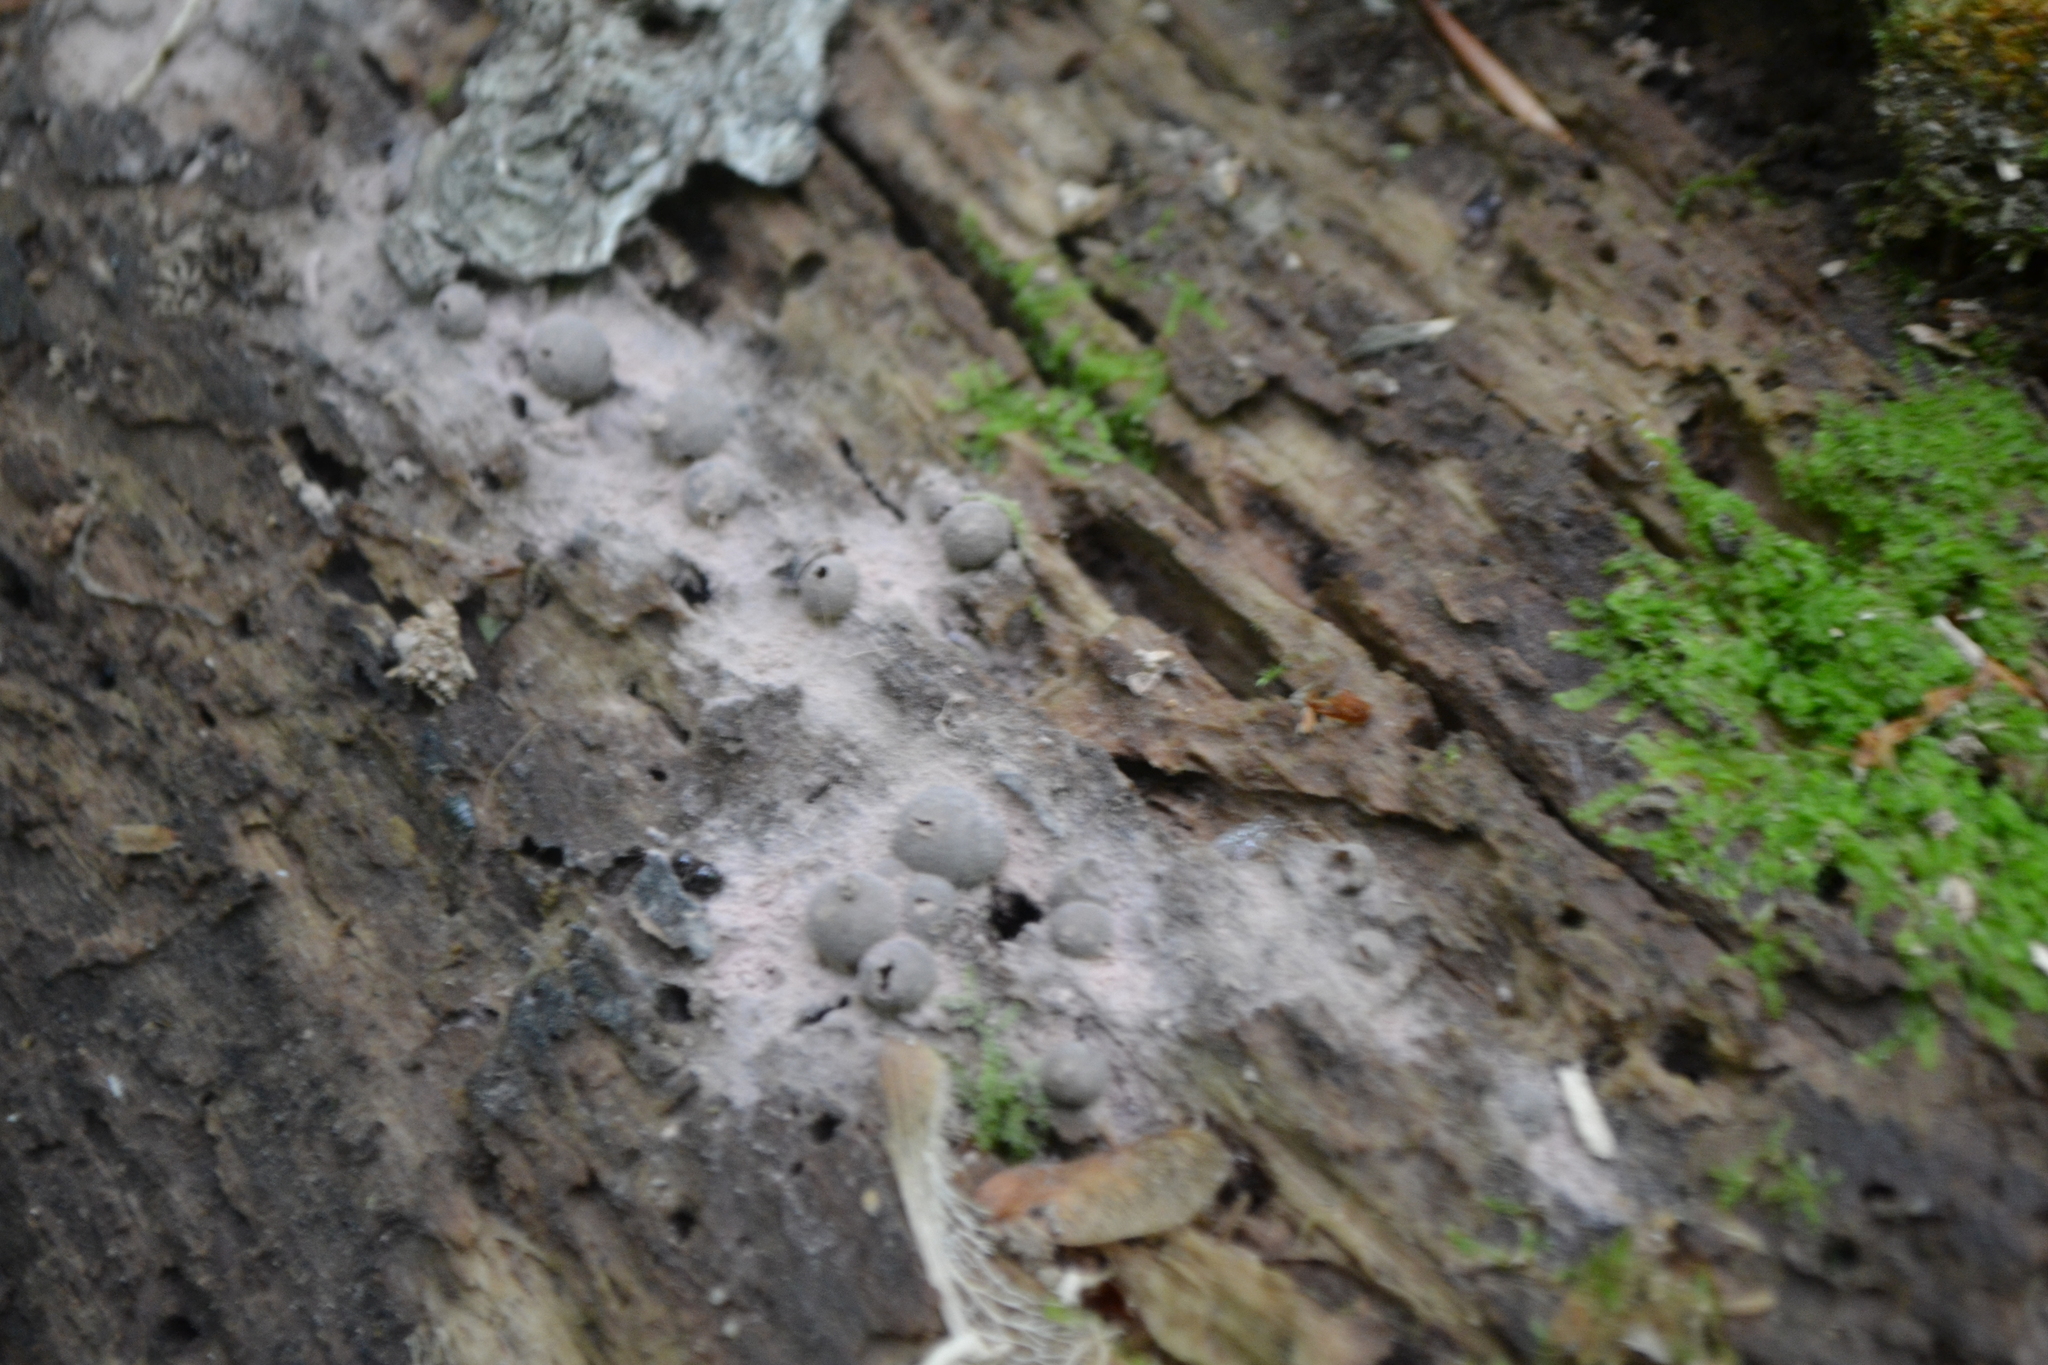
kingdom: Protozoa
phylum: Mycetozoa
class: Myxomycetes
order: Cribrariales
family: Tubiferaceae
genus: Lycogala
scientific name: Lycogala epidendrum
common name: Wolf's milk
